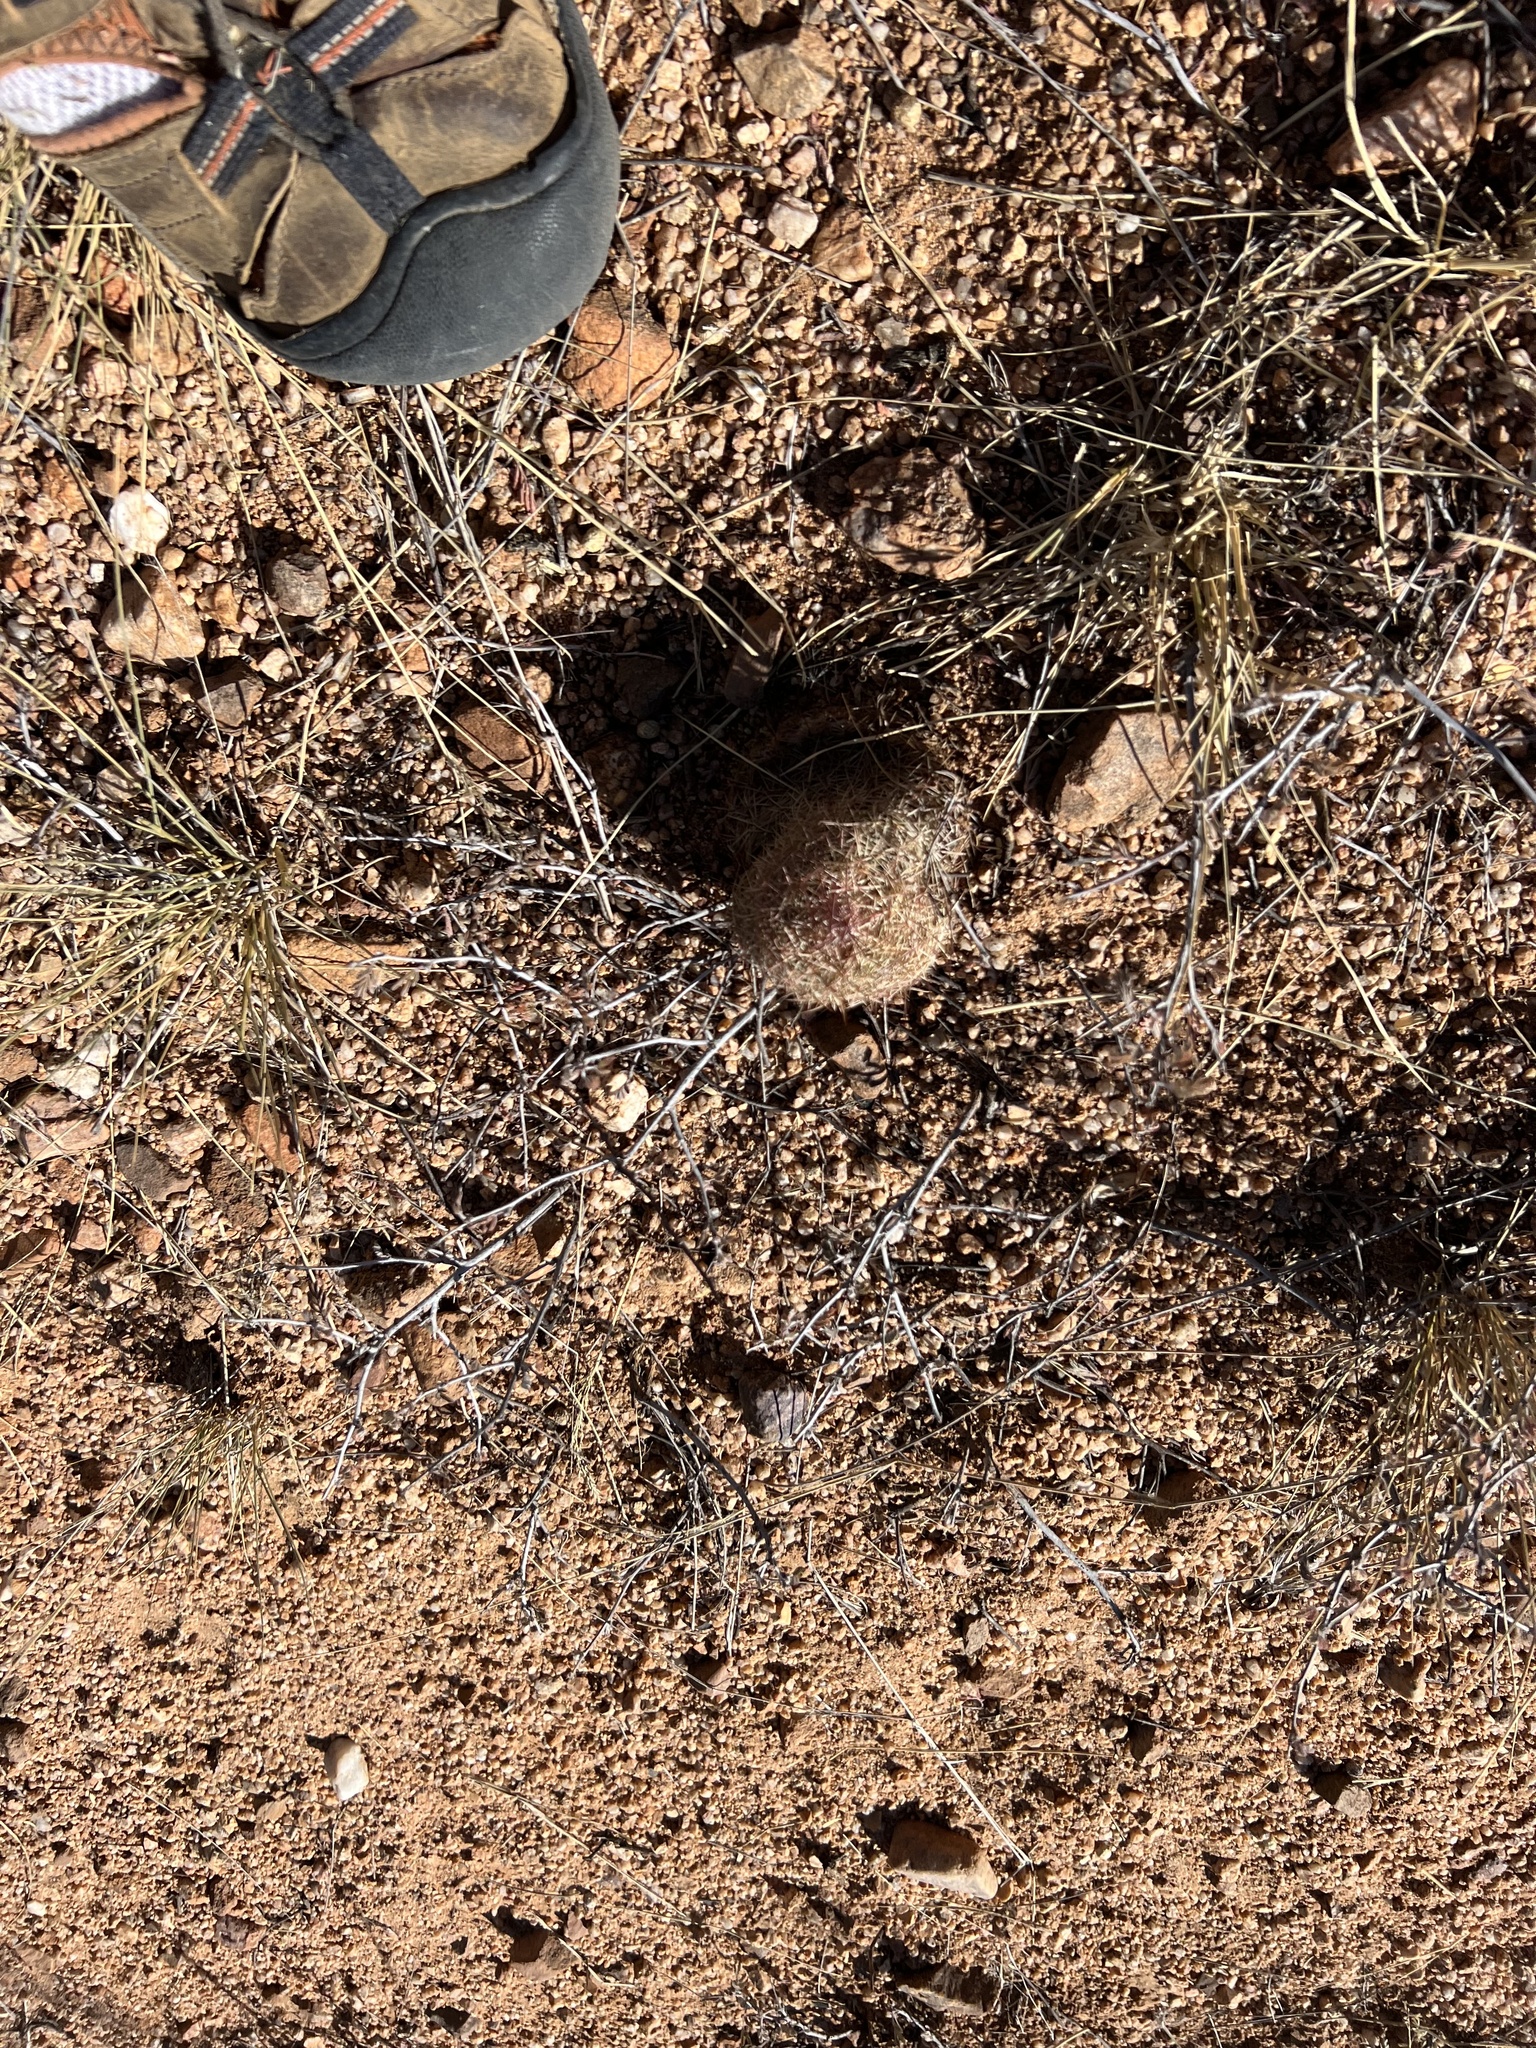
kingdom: Plantae
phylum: Tracheophyta
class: Magnoliopsida
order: Caryophyllales
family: Cactaceae
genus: Sclerocactus
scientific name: Sclerocactus johnsonii
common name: Eight-spine fishhook cactus
